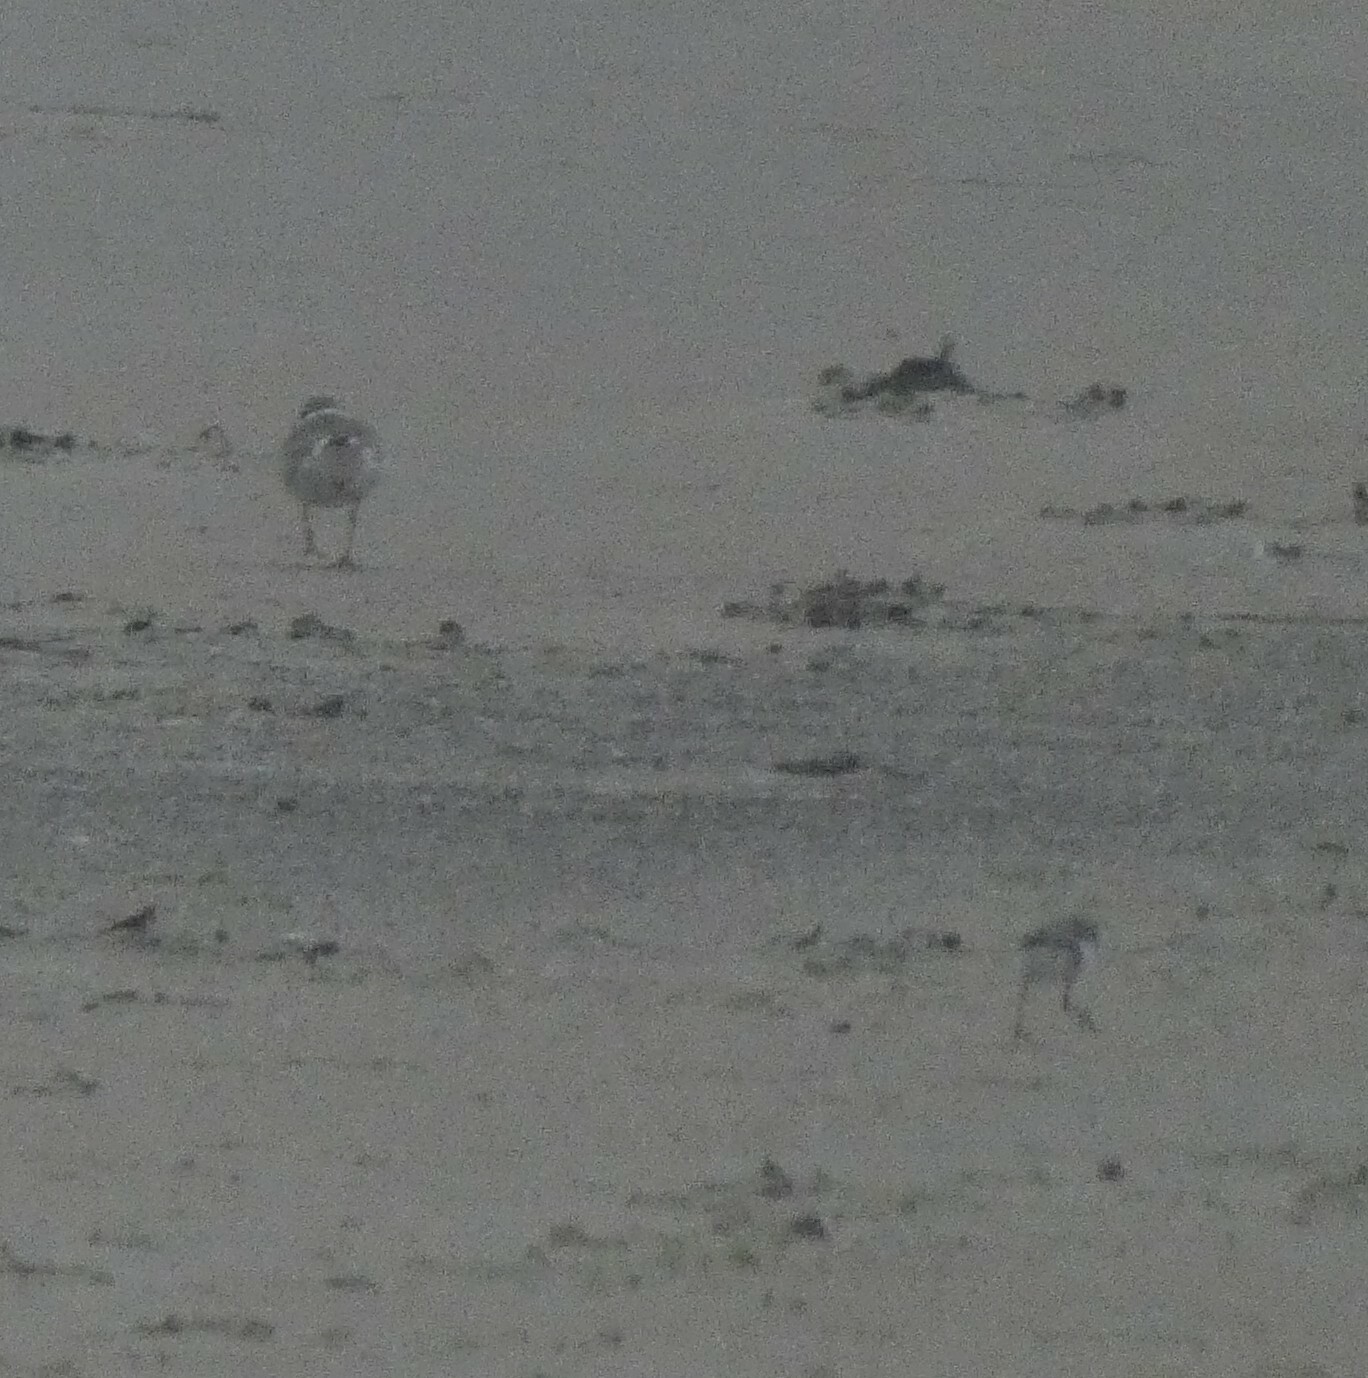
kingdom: Animalia
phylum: Chordata
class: Aves
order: Charadriiformes
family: Charadriidae
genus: Charadrius
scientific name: Charadrius hiaticula
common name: Common ringed plover
